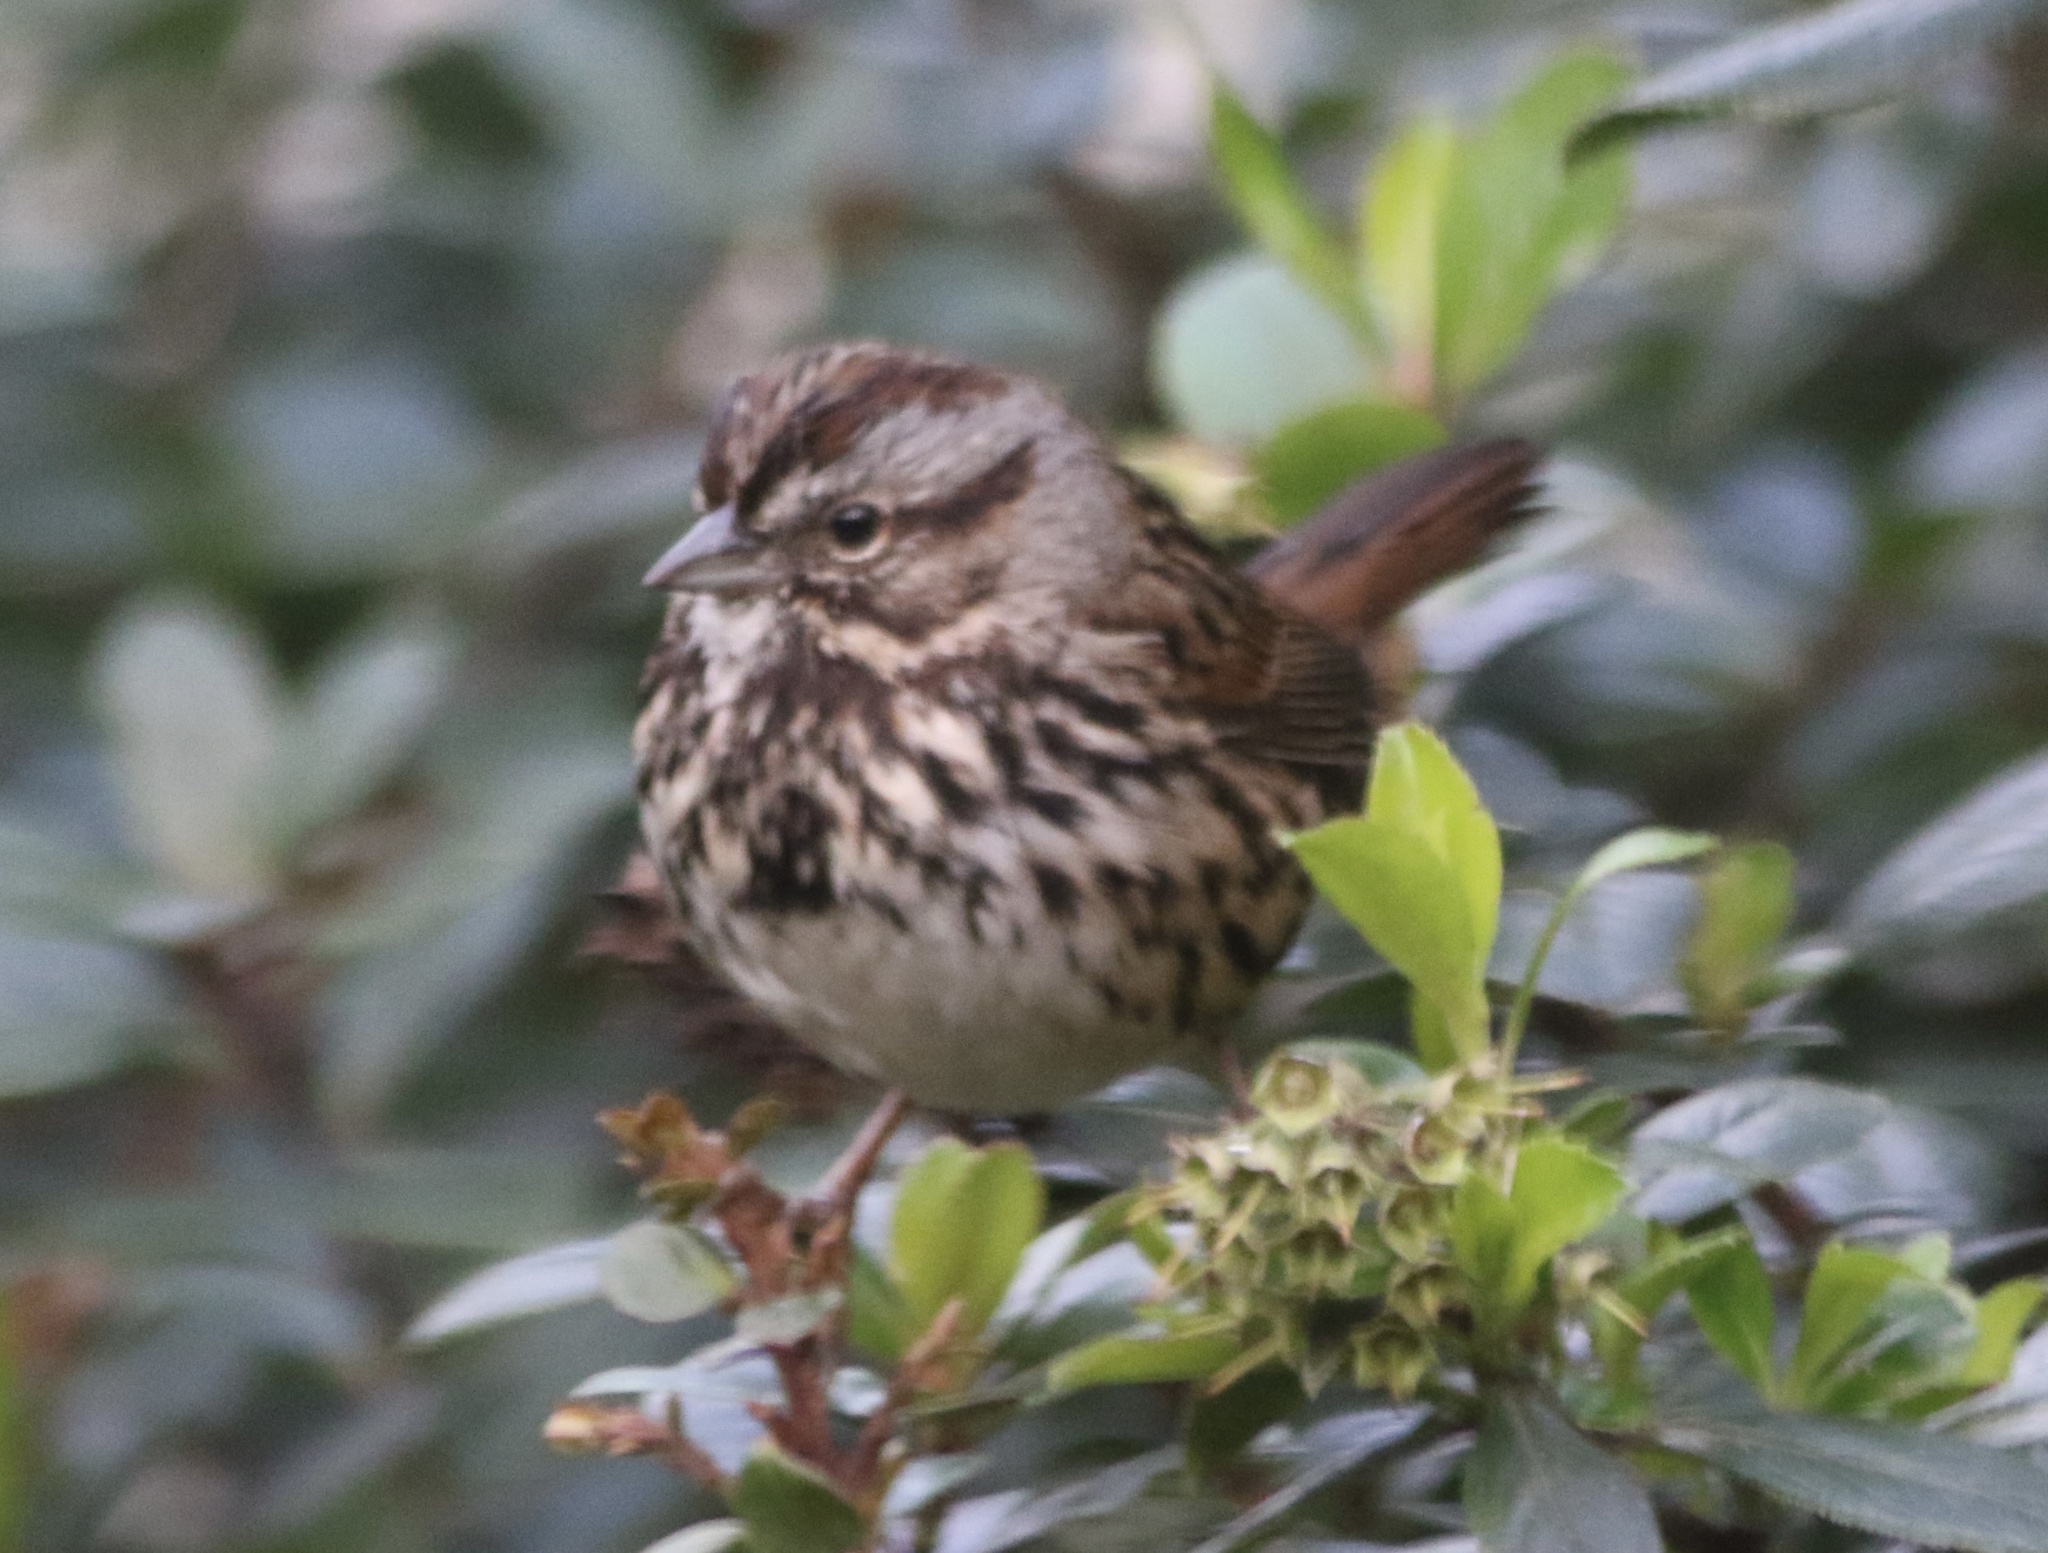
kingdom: Animalia
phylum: Chordata
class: Aves
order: Passeriformes
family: Passerellidae
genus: Melospiza
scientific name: Melospiza melodia
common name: Song sparrow
